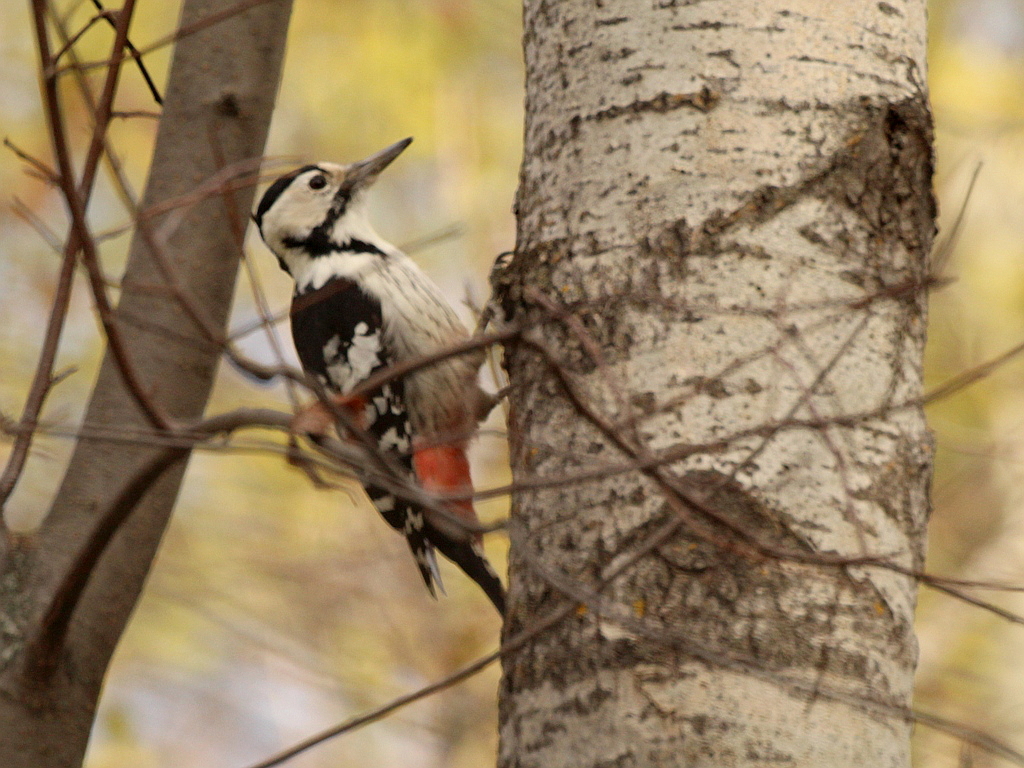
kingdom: Animalia
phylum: Chordata
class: Aves
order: Piciformes
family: Picidae
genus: Dendrocopos
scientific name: Dendrocopos leucotos
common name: White-backed woodpecker
